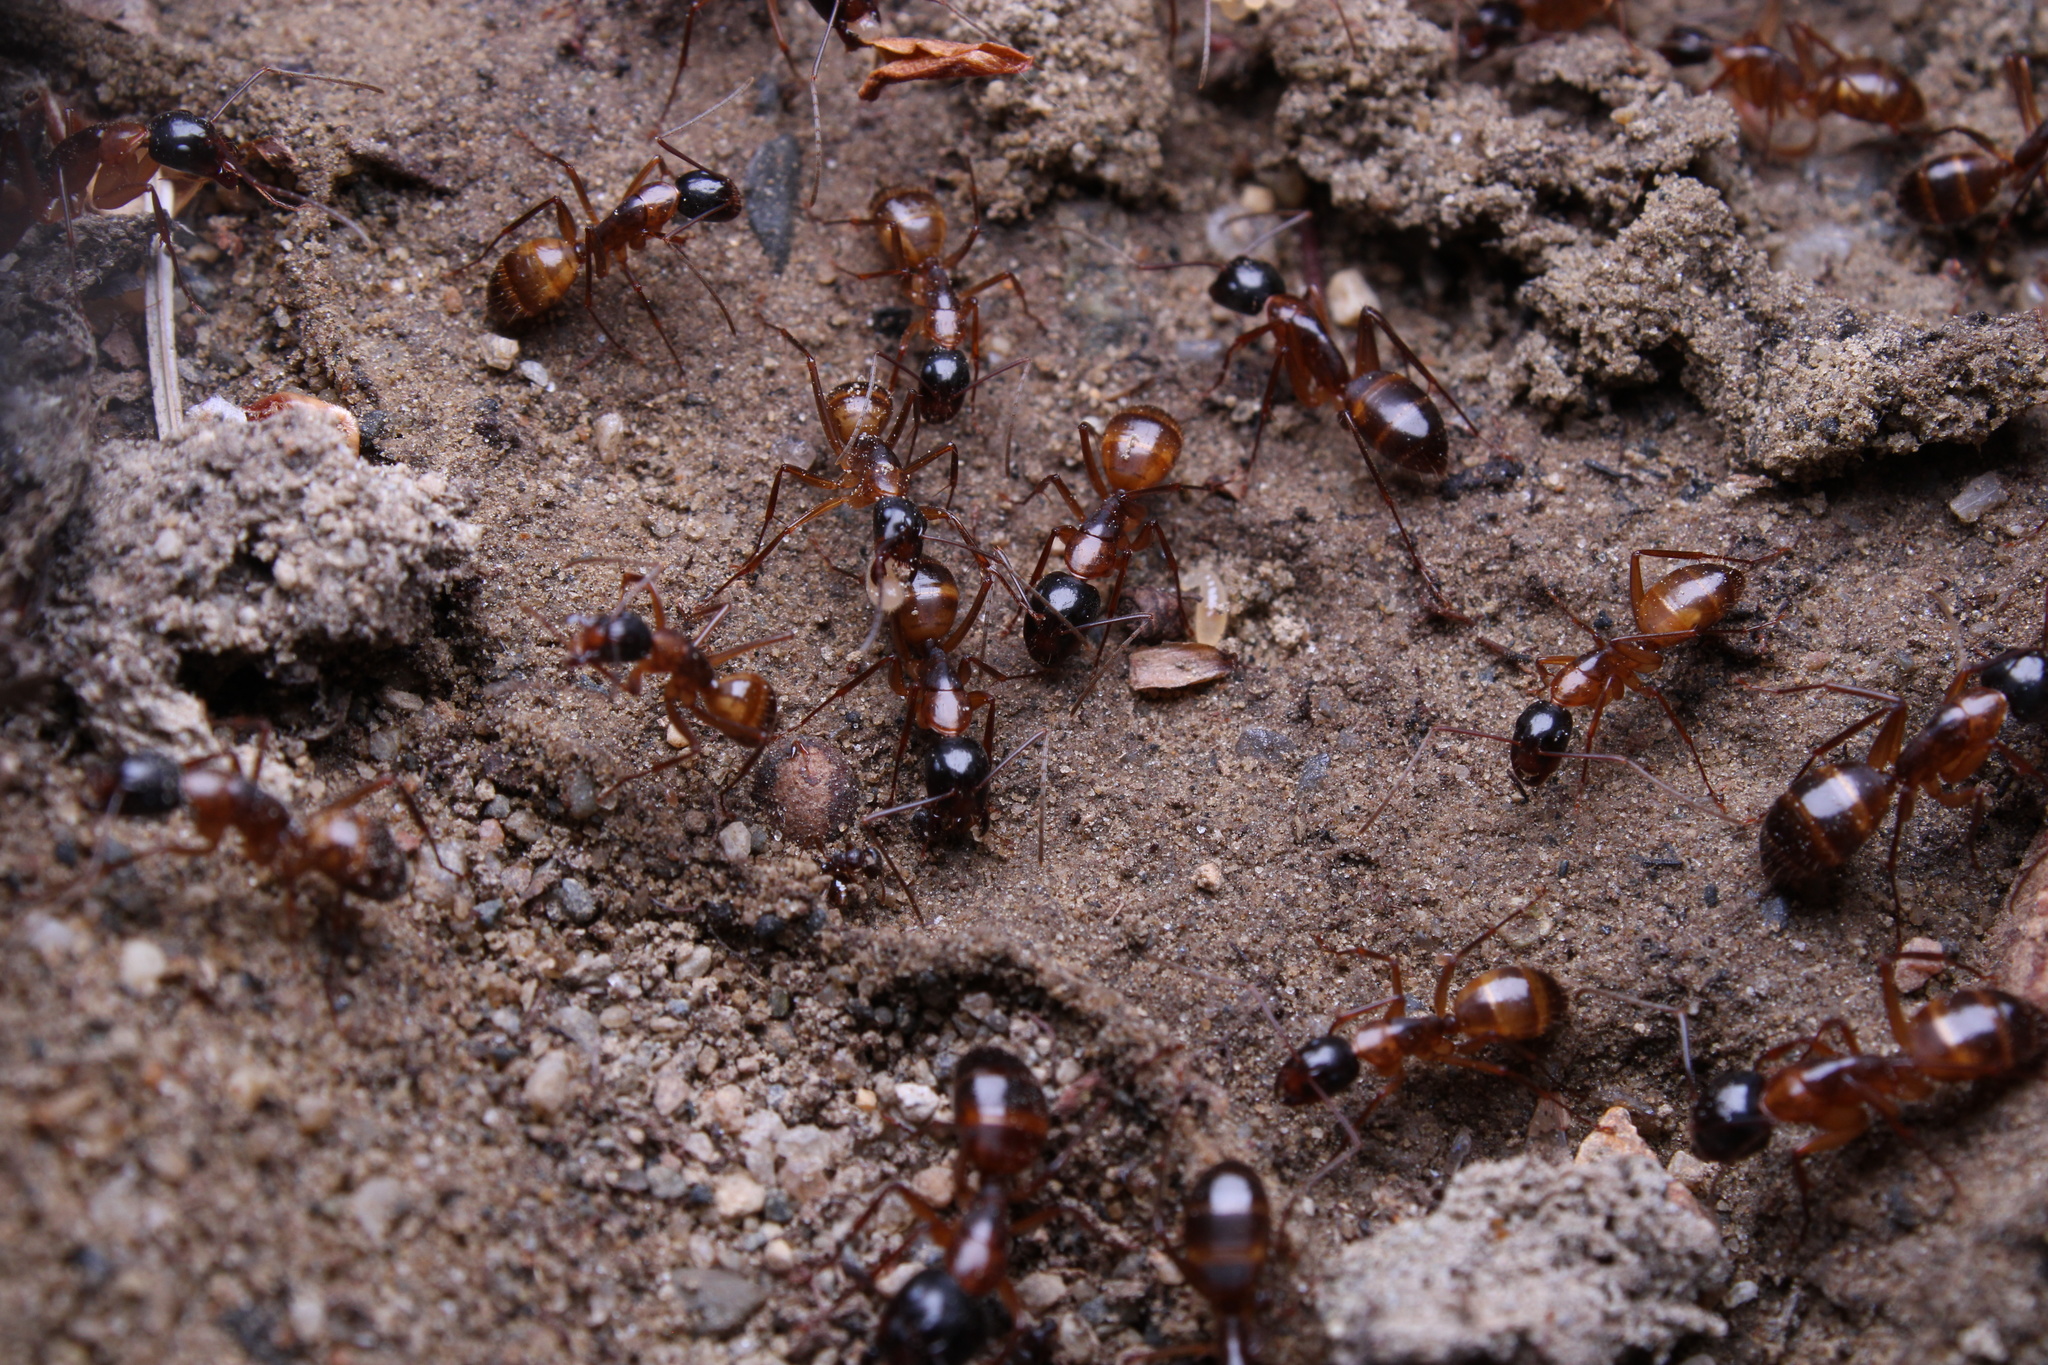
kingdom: Animalia
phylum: Arthropoda
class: Insecta
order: Hymenoptera
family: Formicidae
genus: Camponotus
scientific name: Camponotus americanus
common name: American carpenter ant
